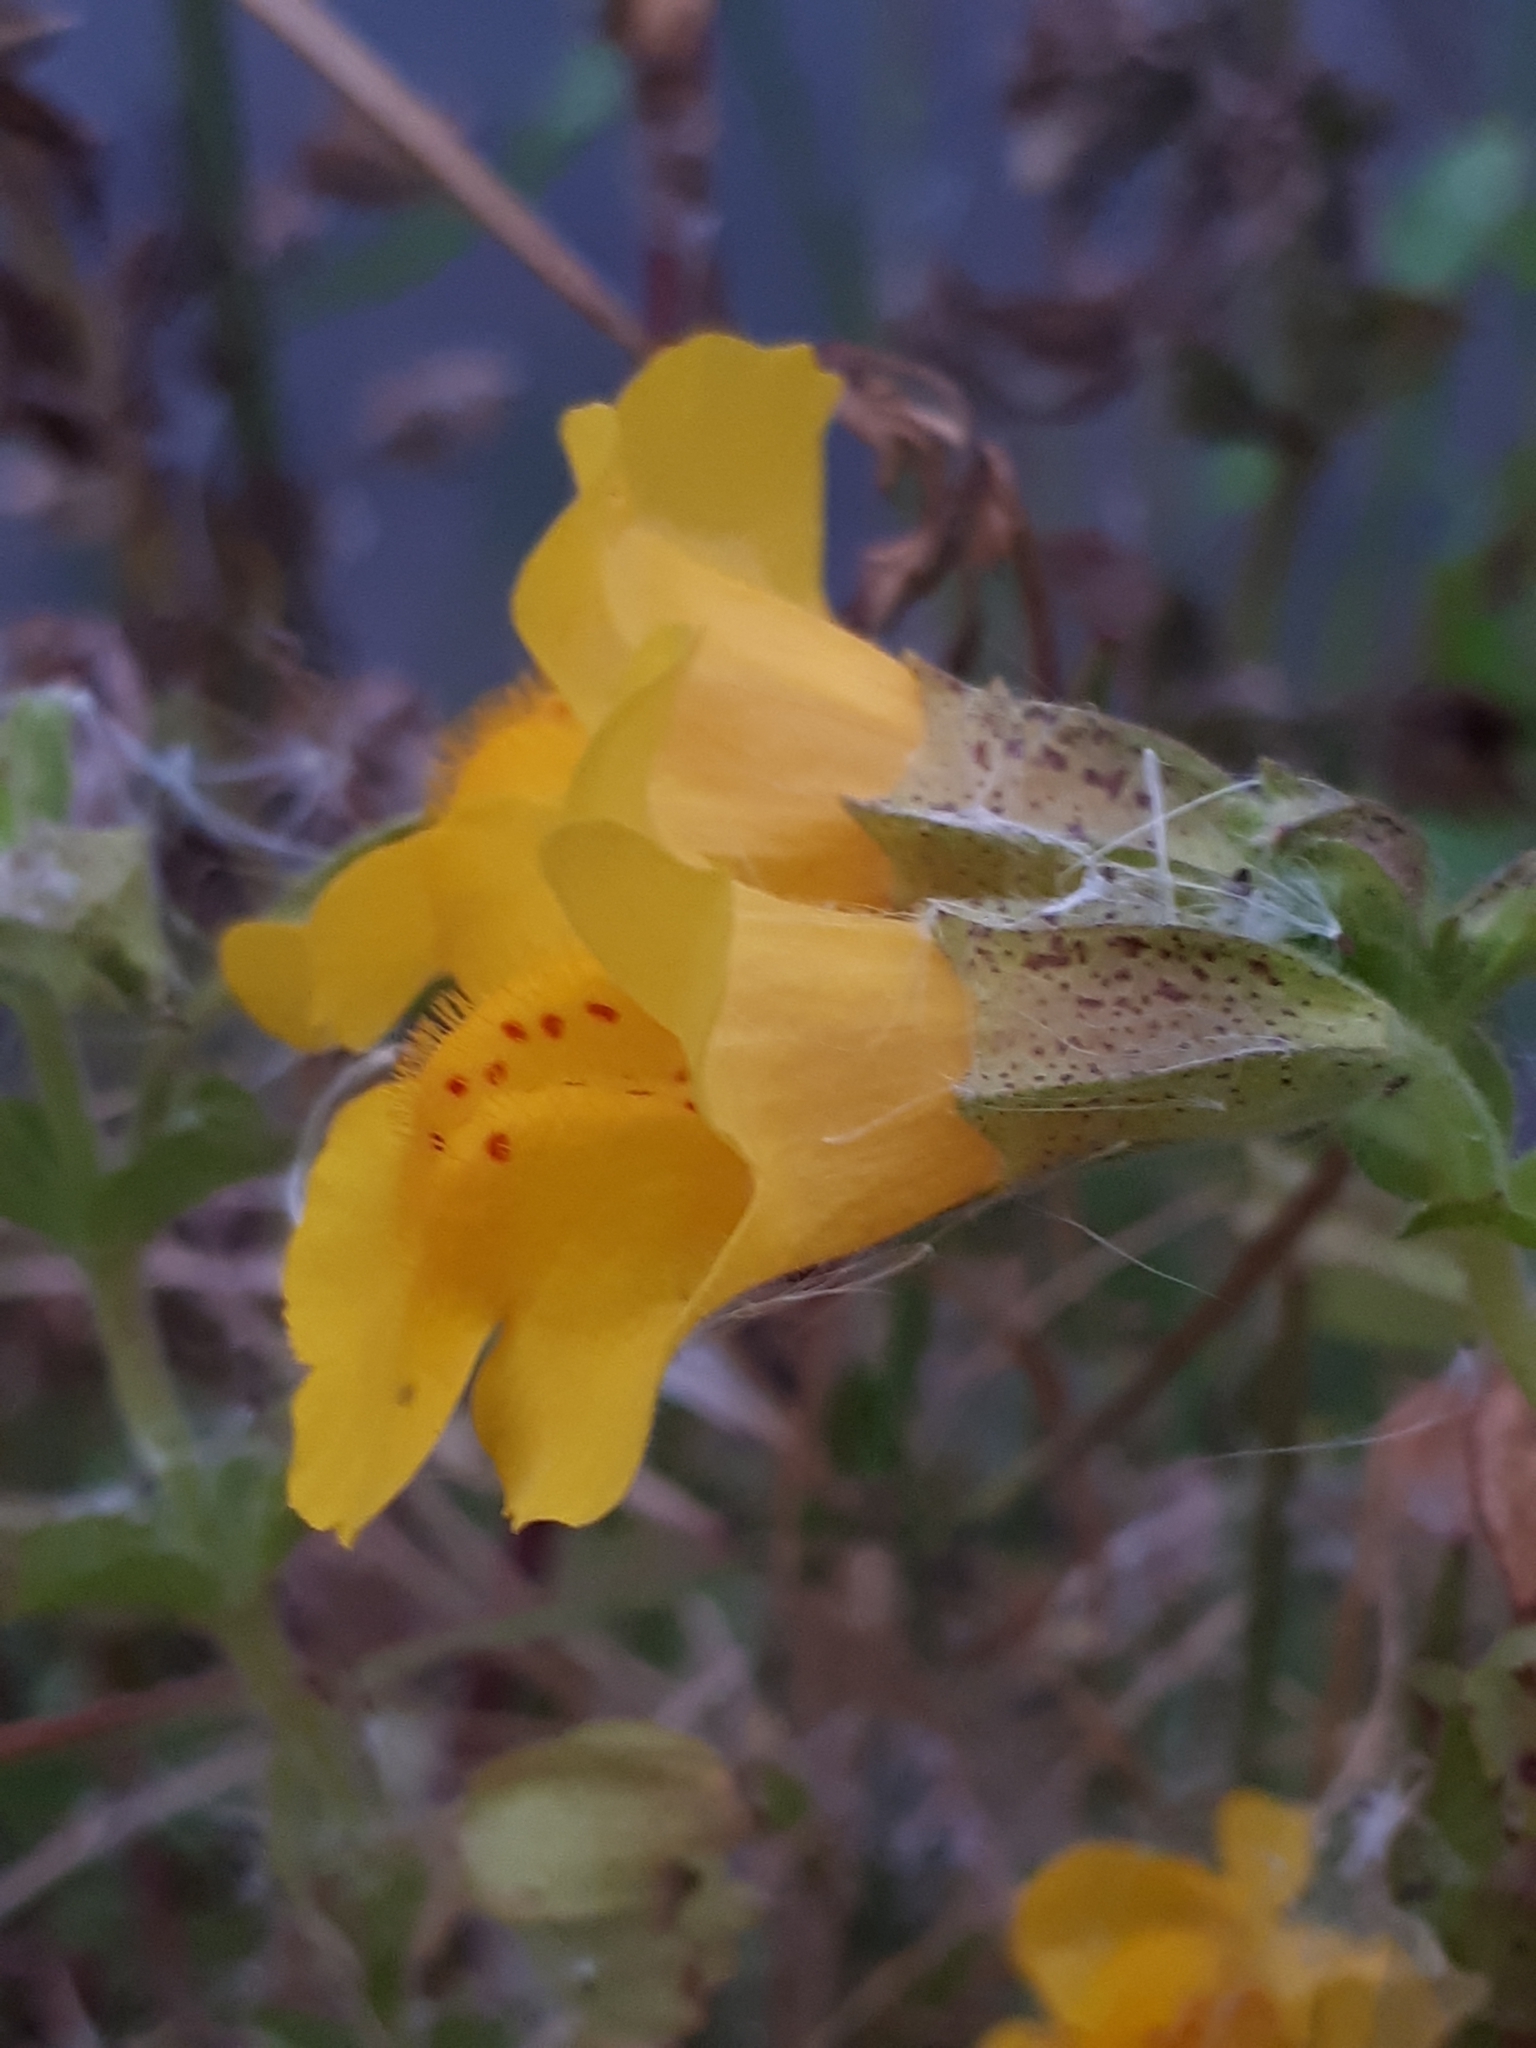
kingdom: Plantae
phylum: Tracheophyta
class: Magnoliopsida
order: Lamiales
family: Phrymaceae
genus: Erythranthe
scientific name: Erythranthe guttata
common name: Monkeyflower
